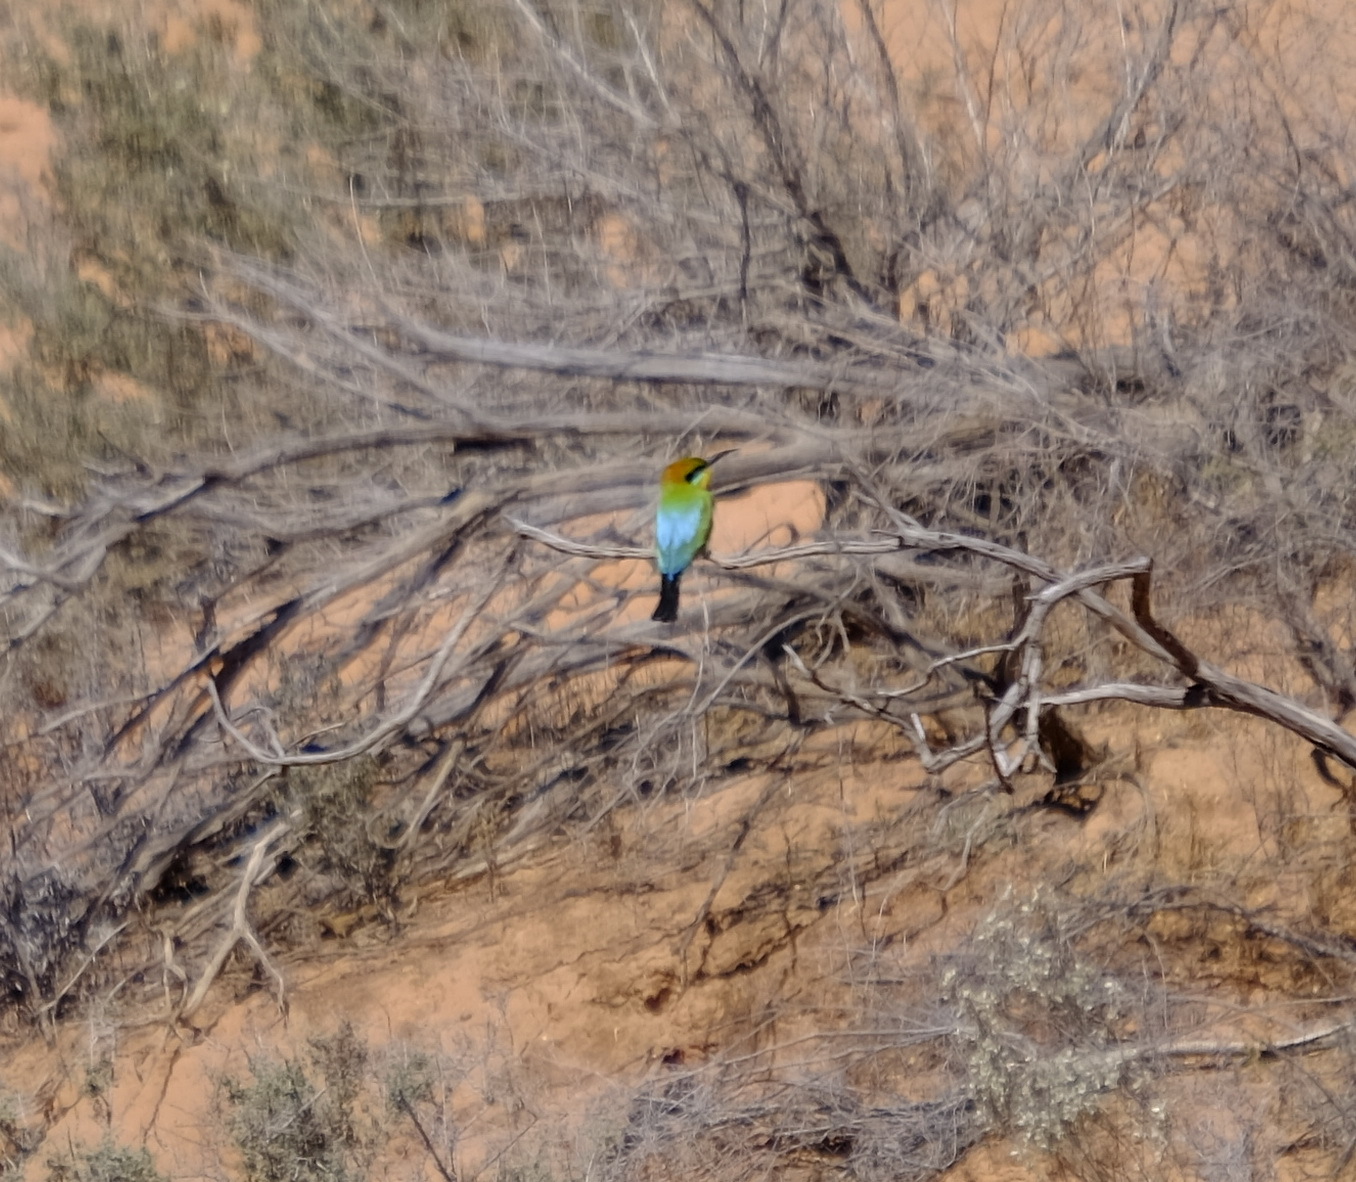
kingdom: Animalia
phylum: Chordata
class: Aves
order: Coraciiformes
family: Meropidae
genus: Merops
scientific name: Merops ornatus
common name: Rainbow bee-eater
